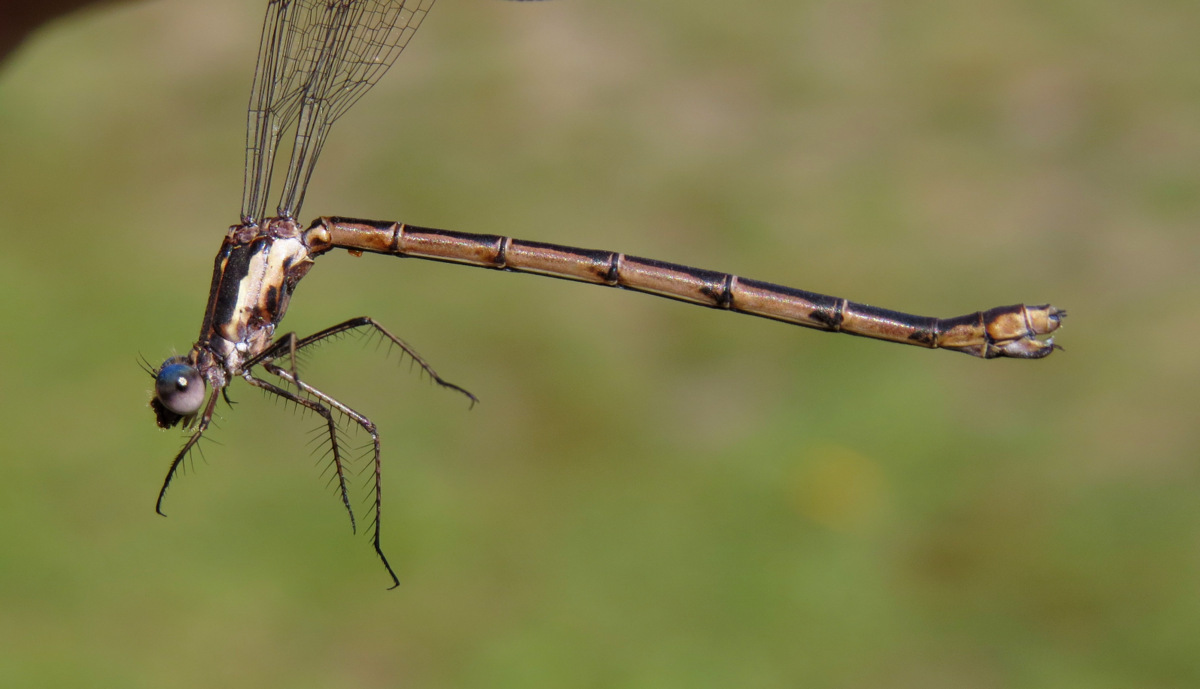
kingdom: Animalia
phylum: Arthropoda
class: Insecta
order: Odonata
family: Lestidae
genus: Lestes
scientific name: Lestes congener
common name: Spotted spreadwing
